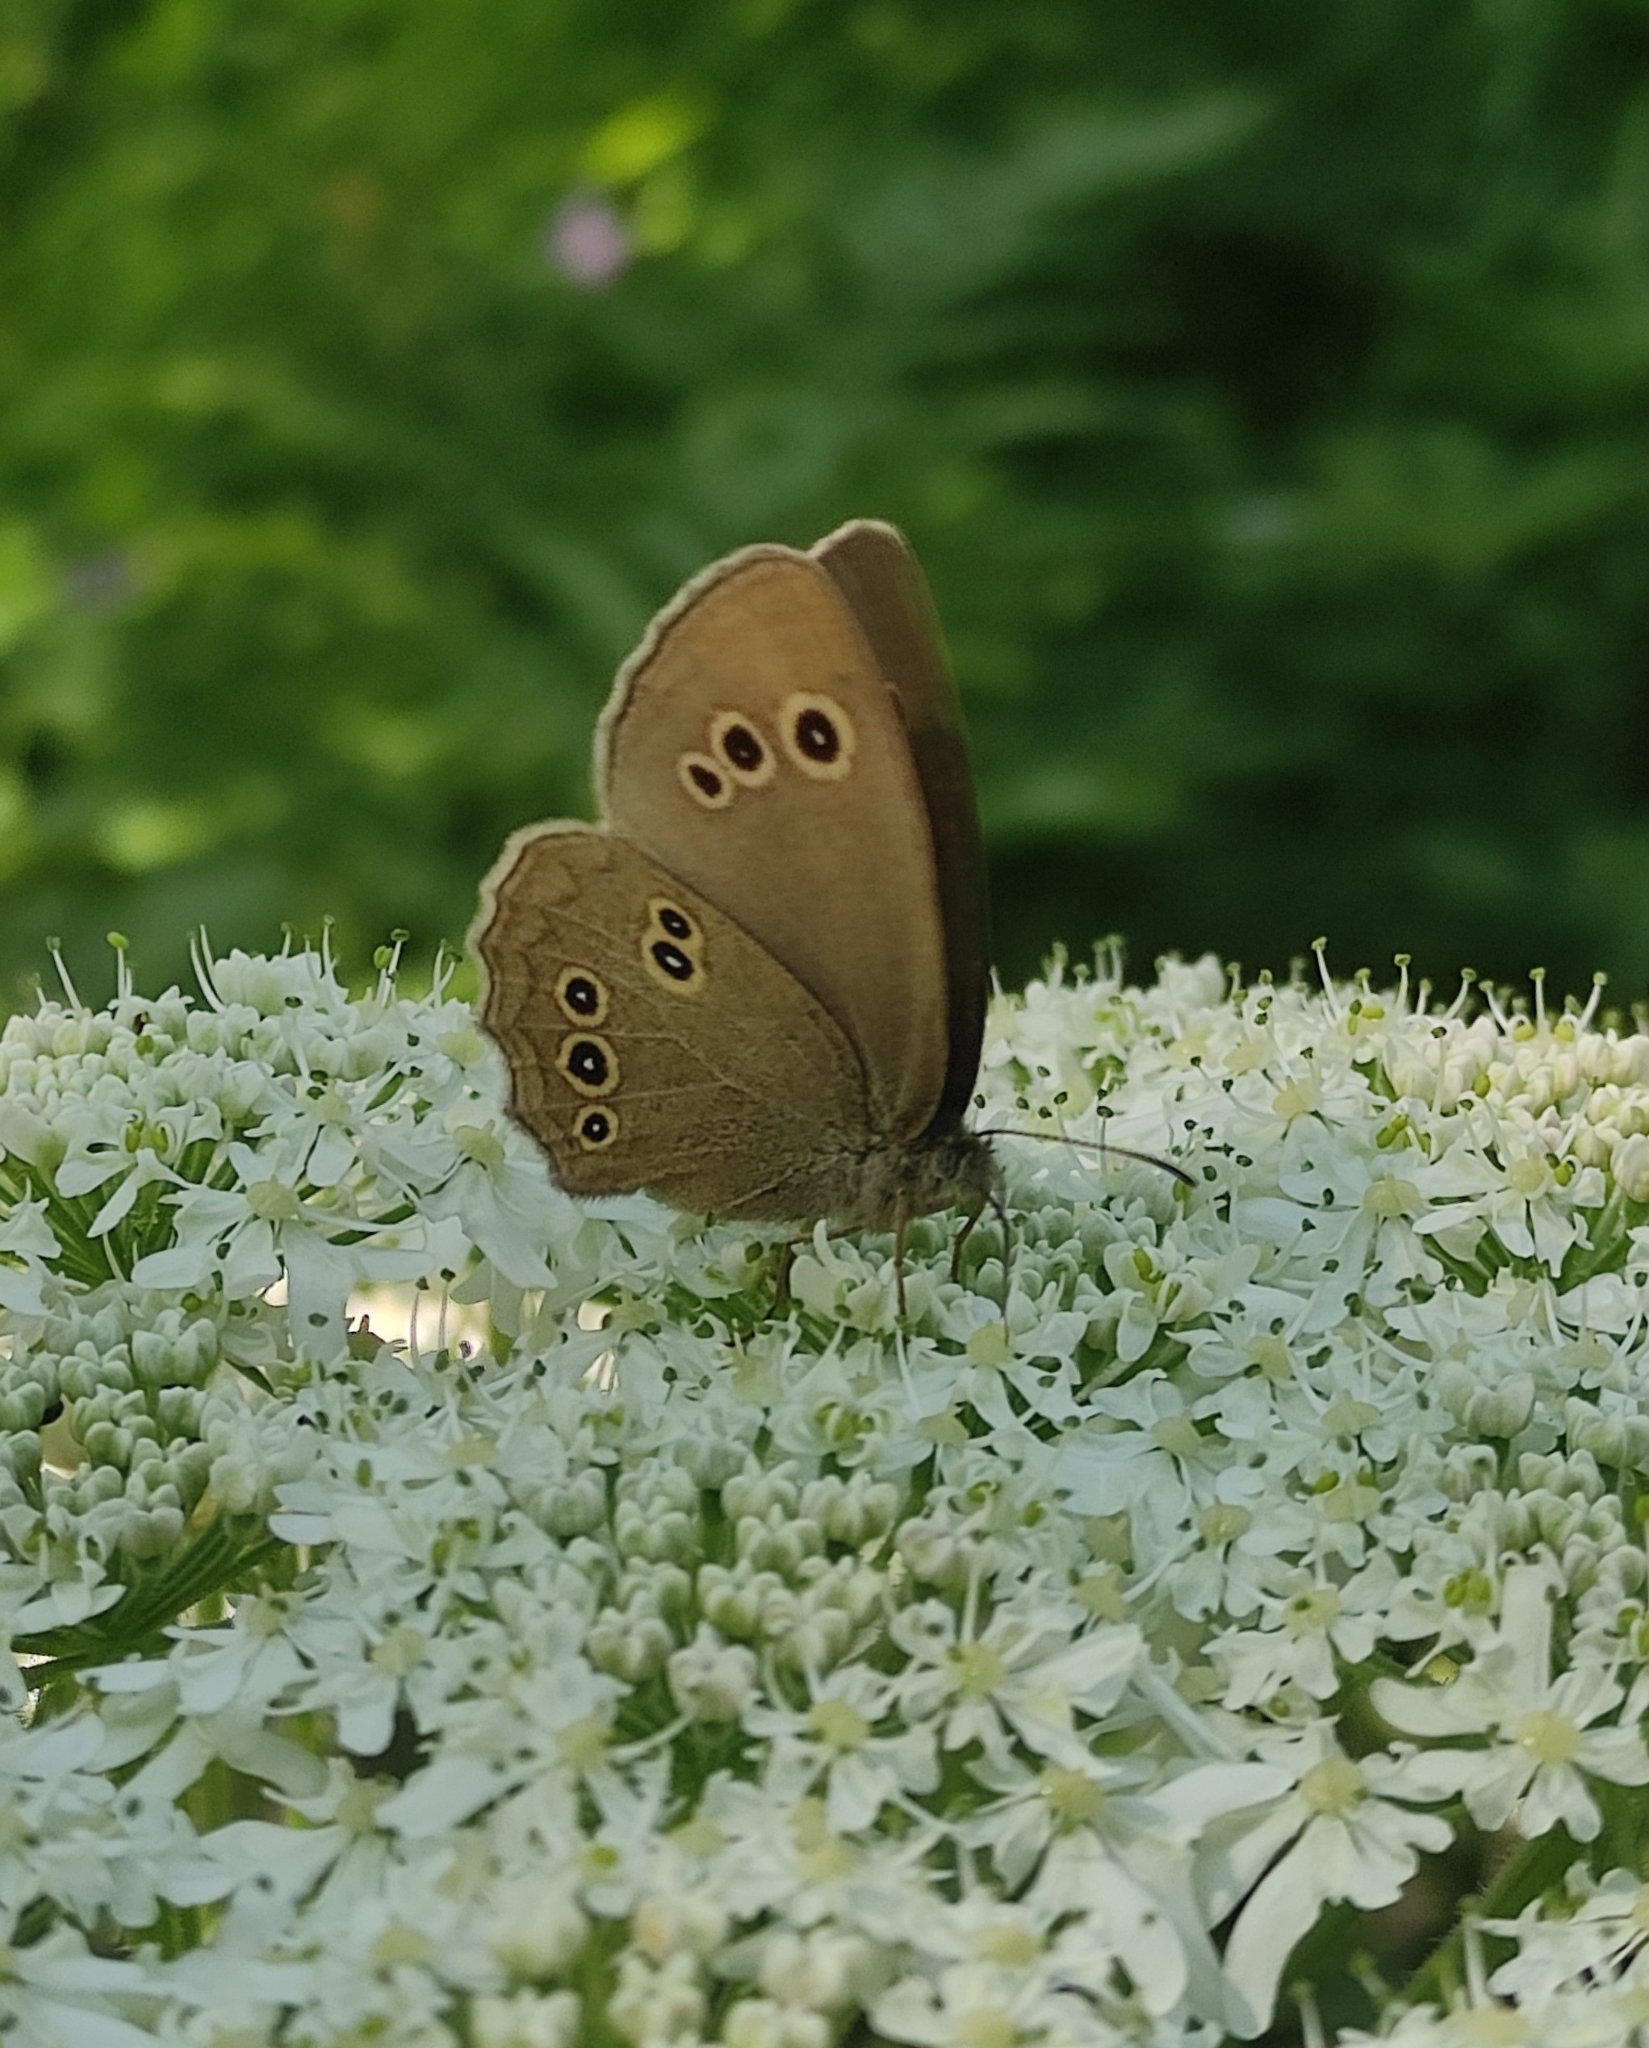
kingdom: Animalia
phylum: Arthropoda
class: Insecta
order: Lepidoptera
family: Nymphalidae
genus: Aphantopus
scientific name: Aphantopus hyperantus
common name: Ringlet
